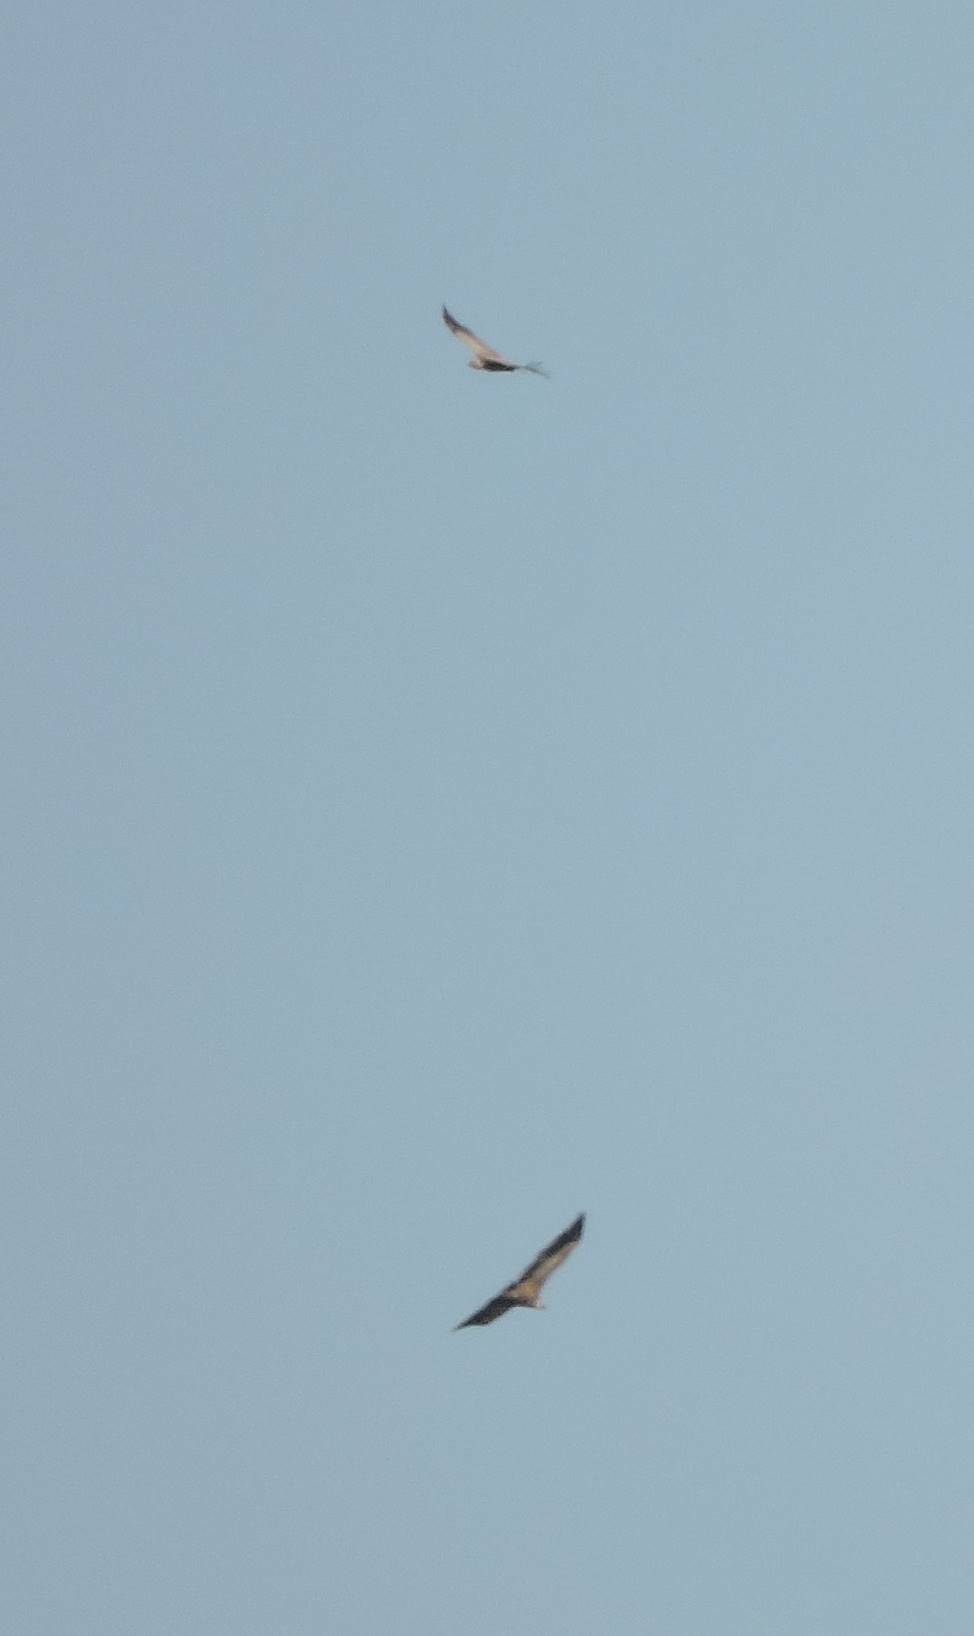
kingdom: Animalia
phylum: Chordata
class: Aves
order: Accipitriformes
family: Accipitridae
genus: Gyps
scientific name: Gyps fulvus
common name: Griffon vulture
